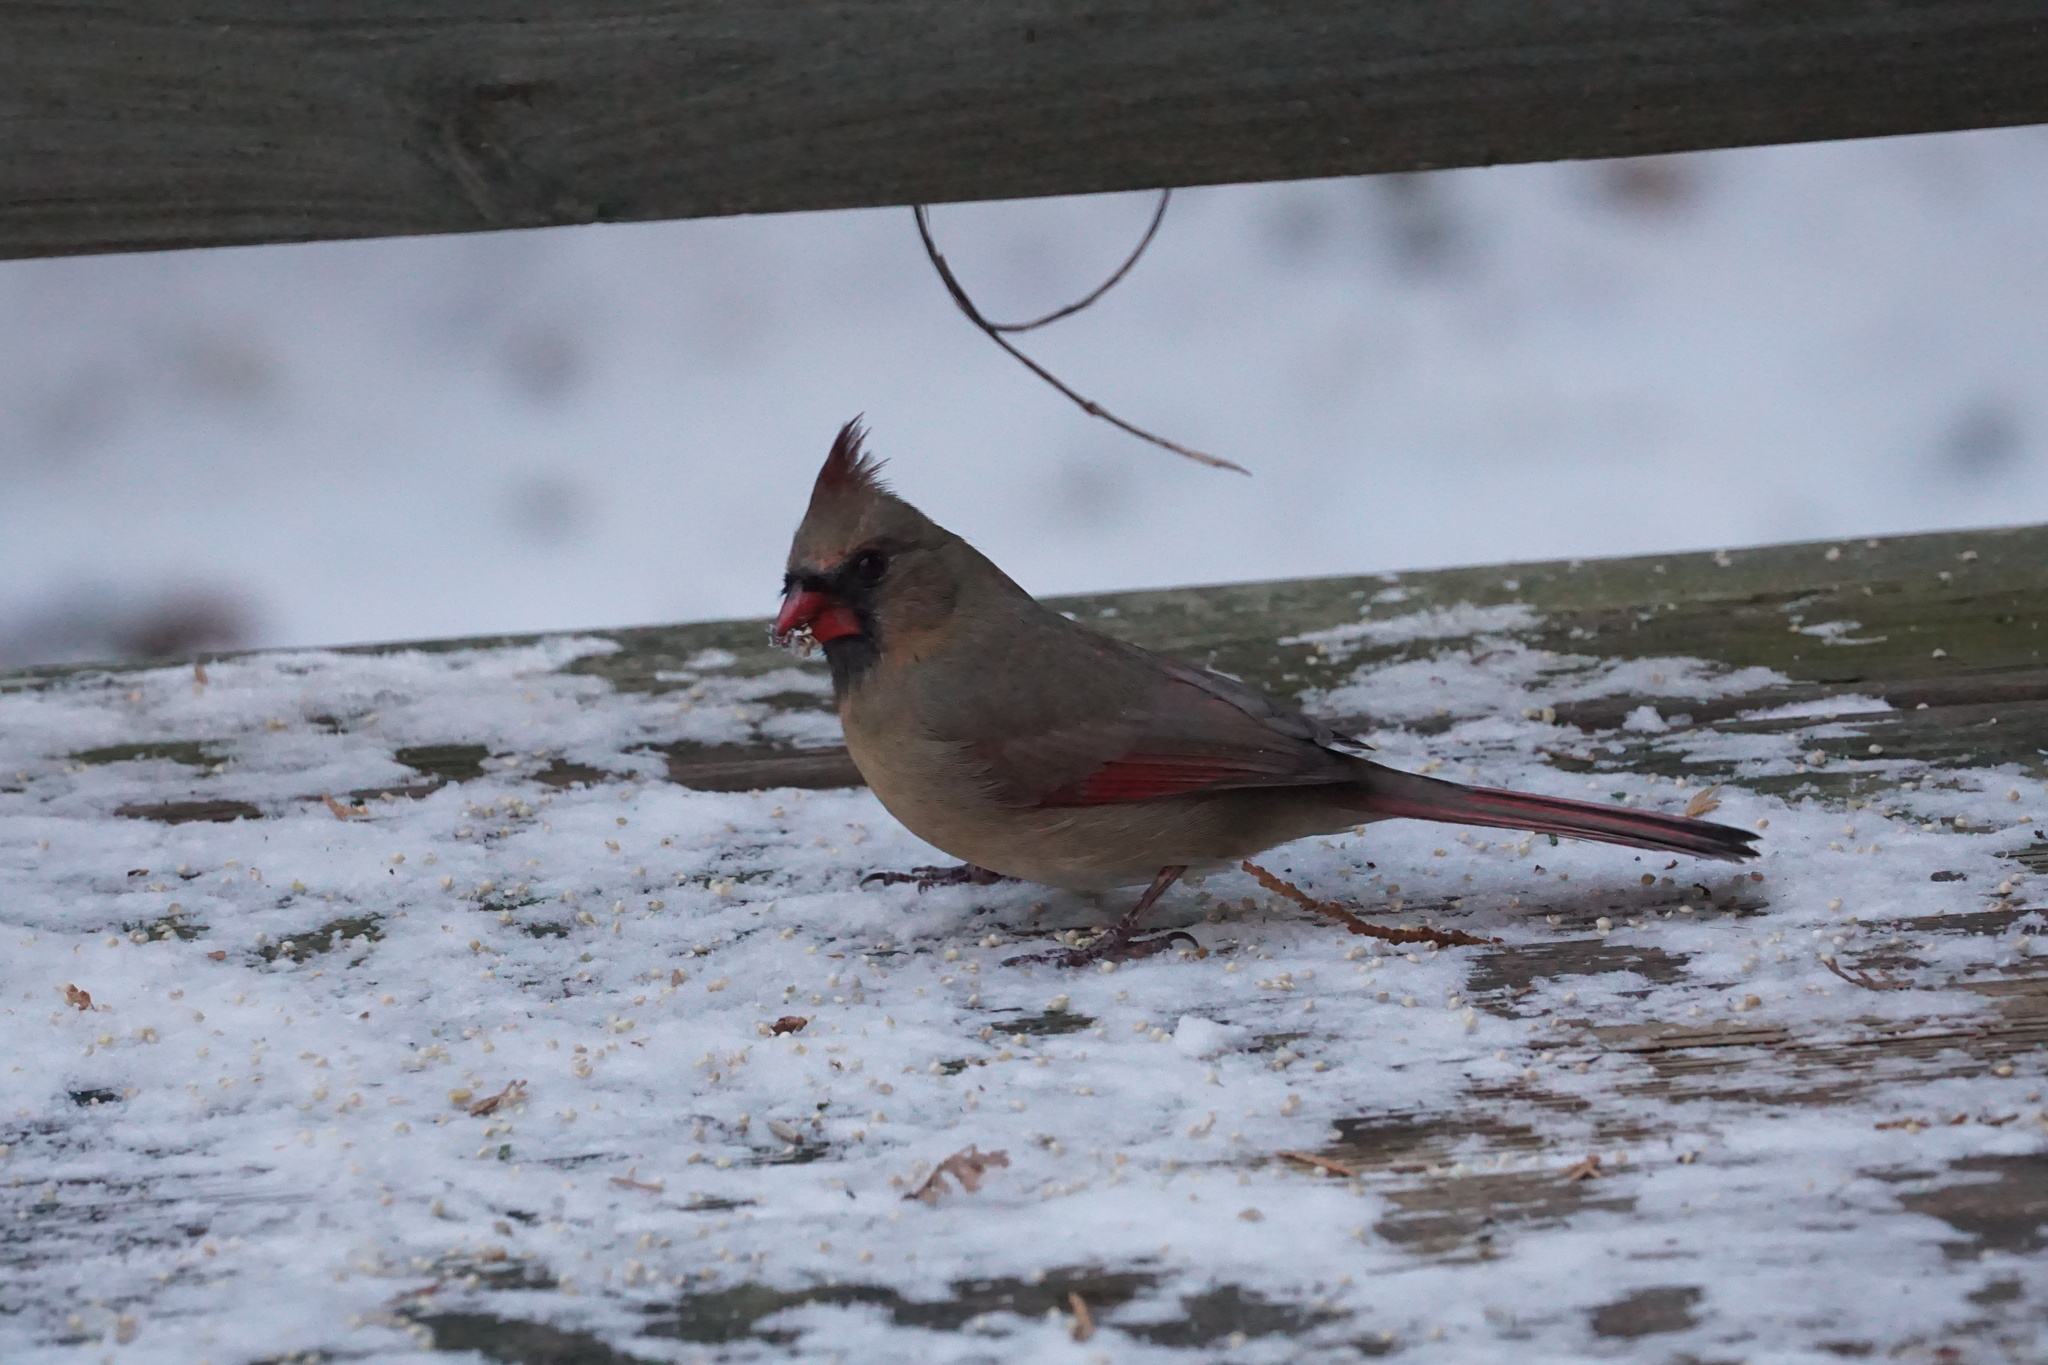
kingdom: Animalia
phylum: Chordata
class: Aves
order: Passeriformes
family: Cardinalidae
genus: Cardinalis
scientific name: Cardinalis cardinalis
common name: Northern cardinal
